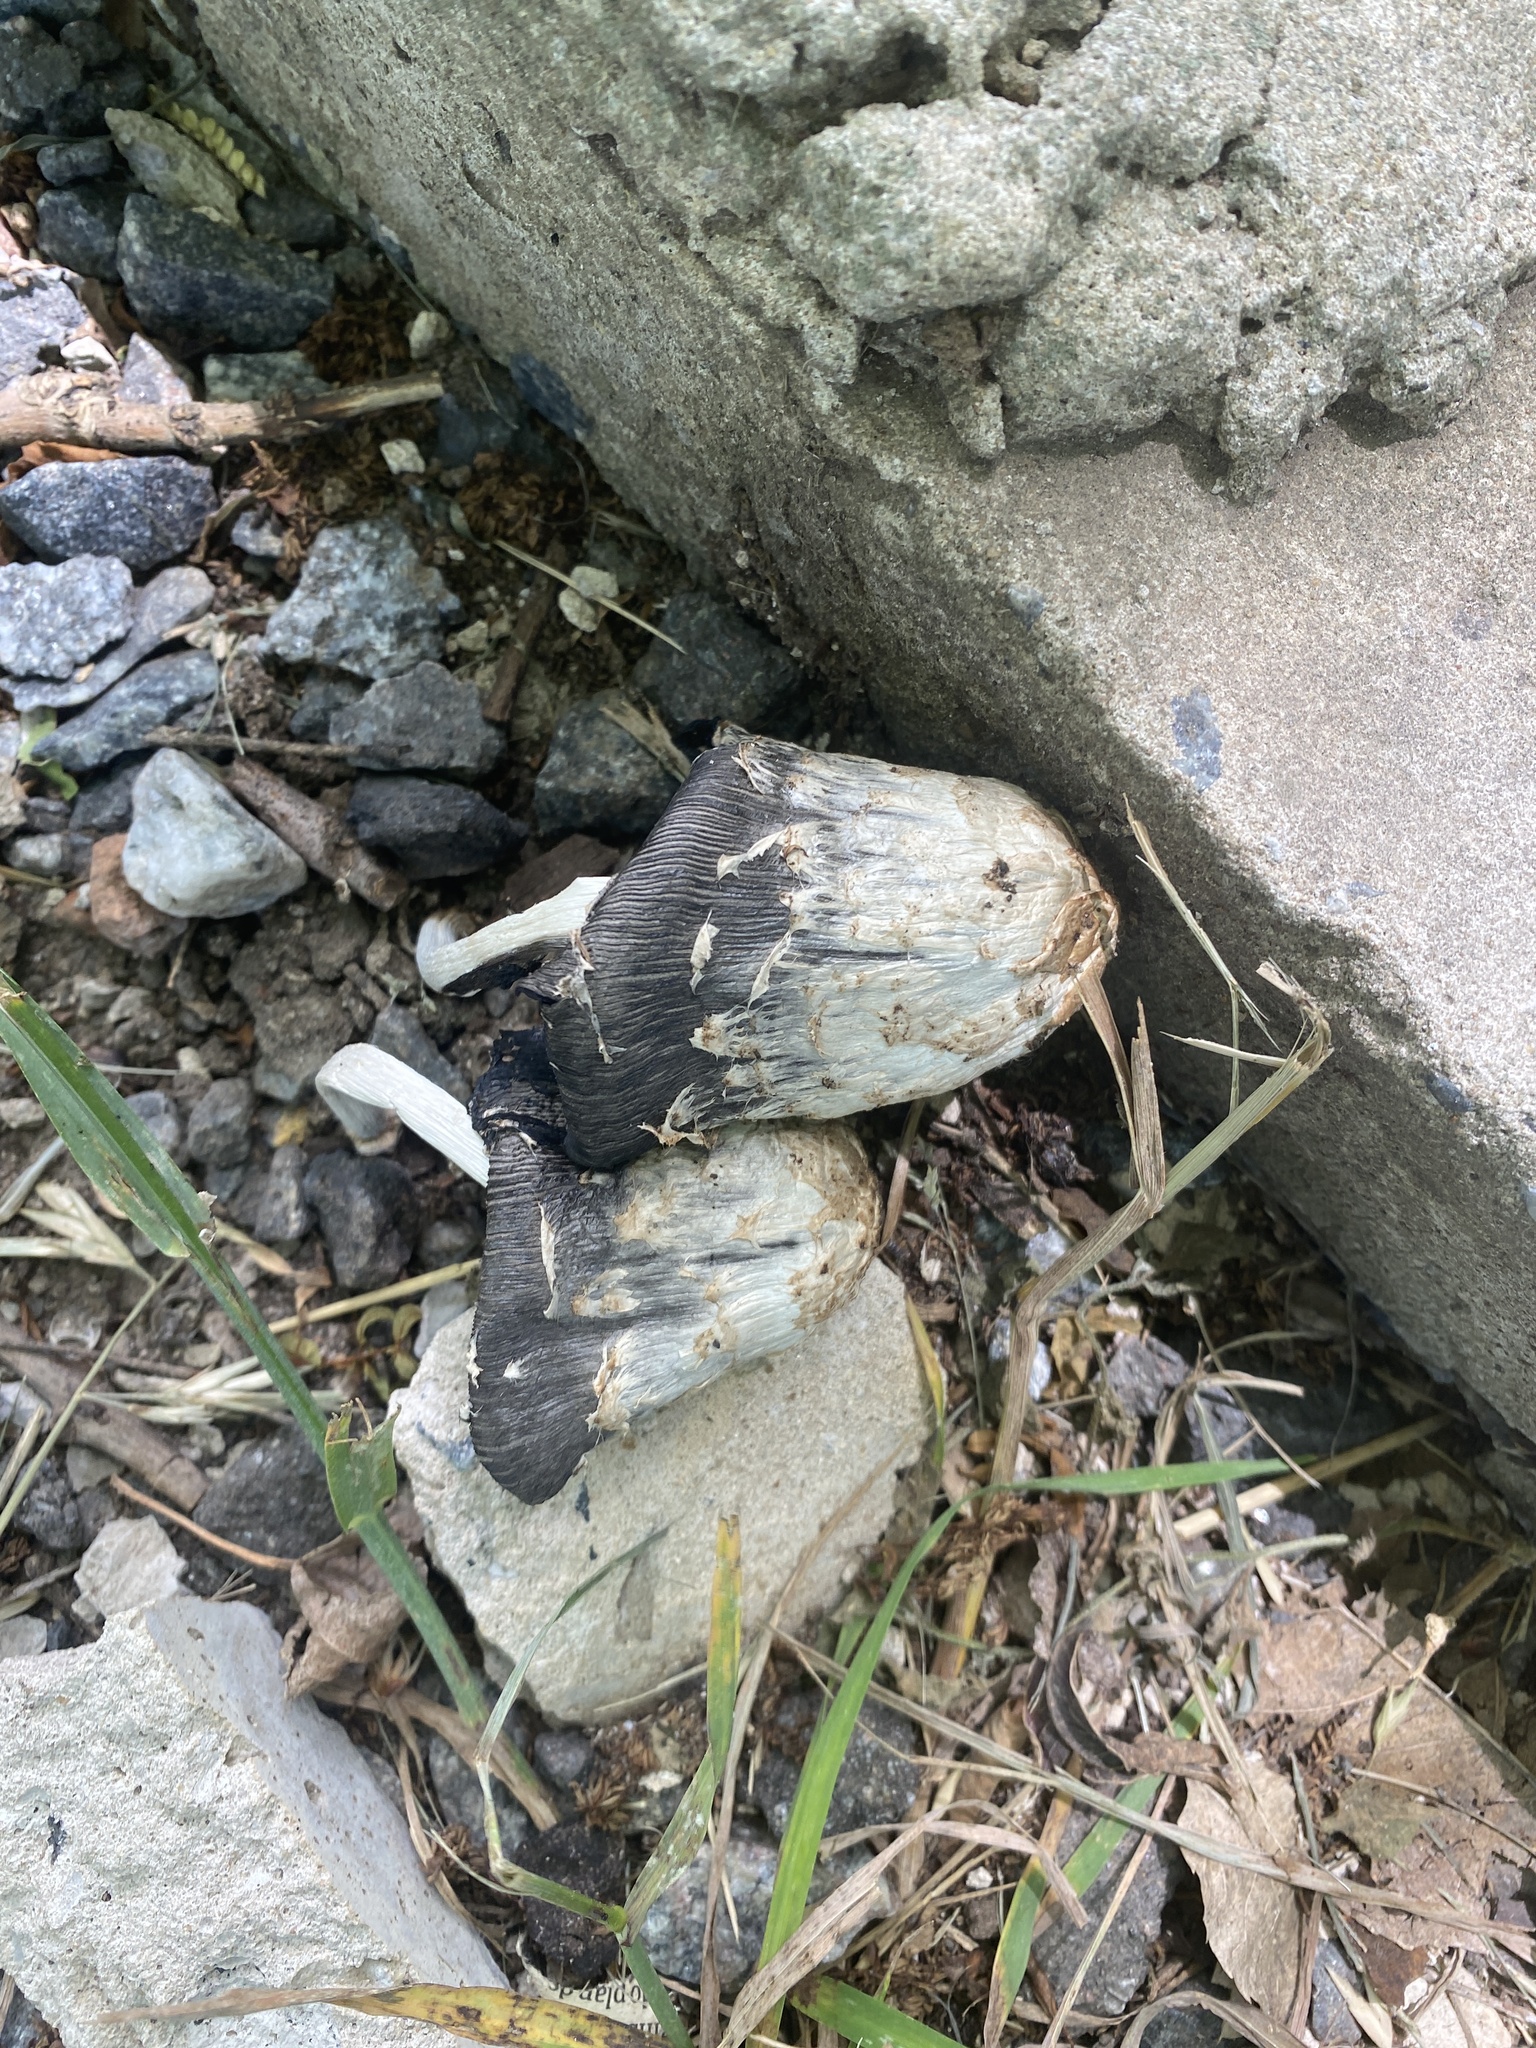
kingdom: Fungi
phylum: Basidiomycota
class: Agaricomycetes
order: Agaricales
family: Agaricaceae
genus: Coprinus
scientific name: Coprinus comatus
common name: Lawyer's wig
